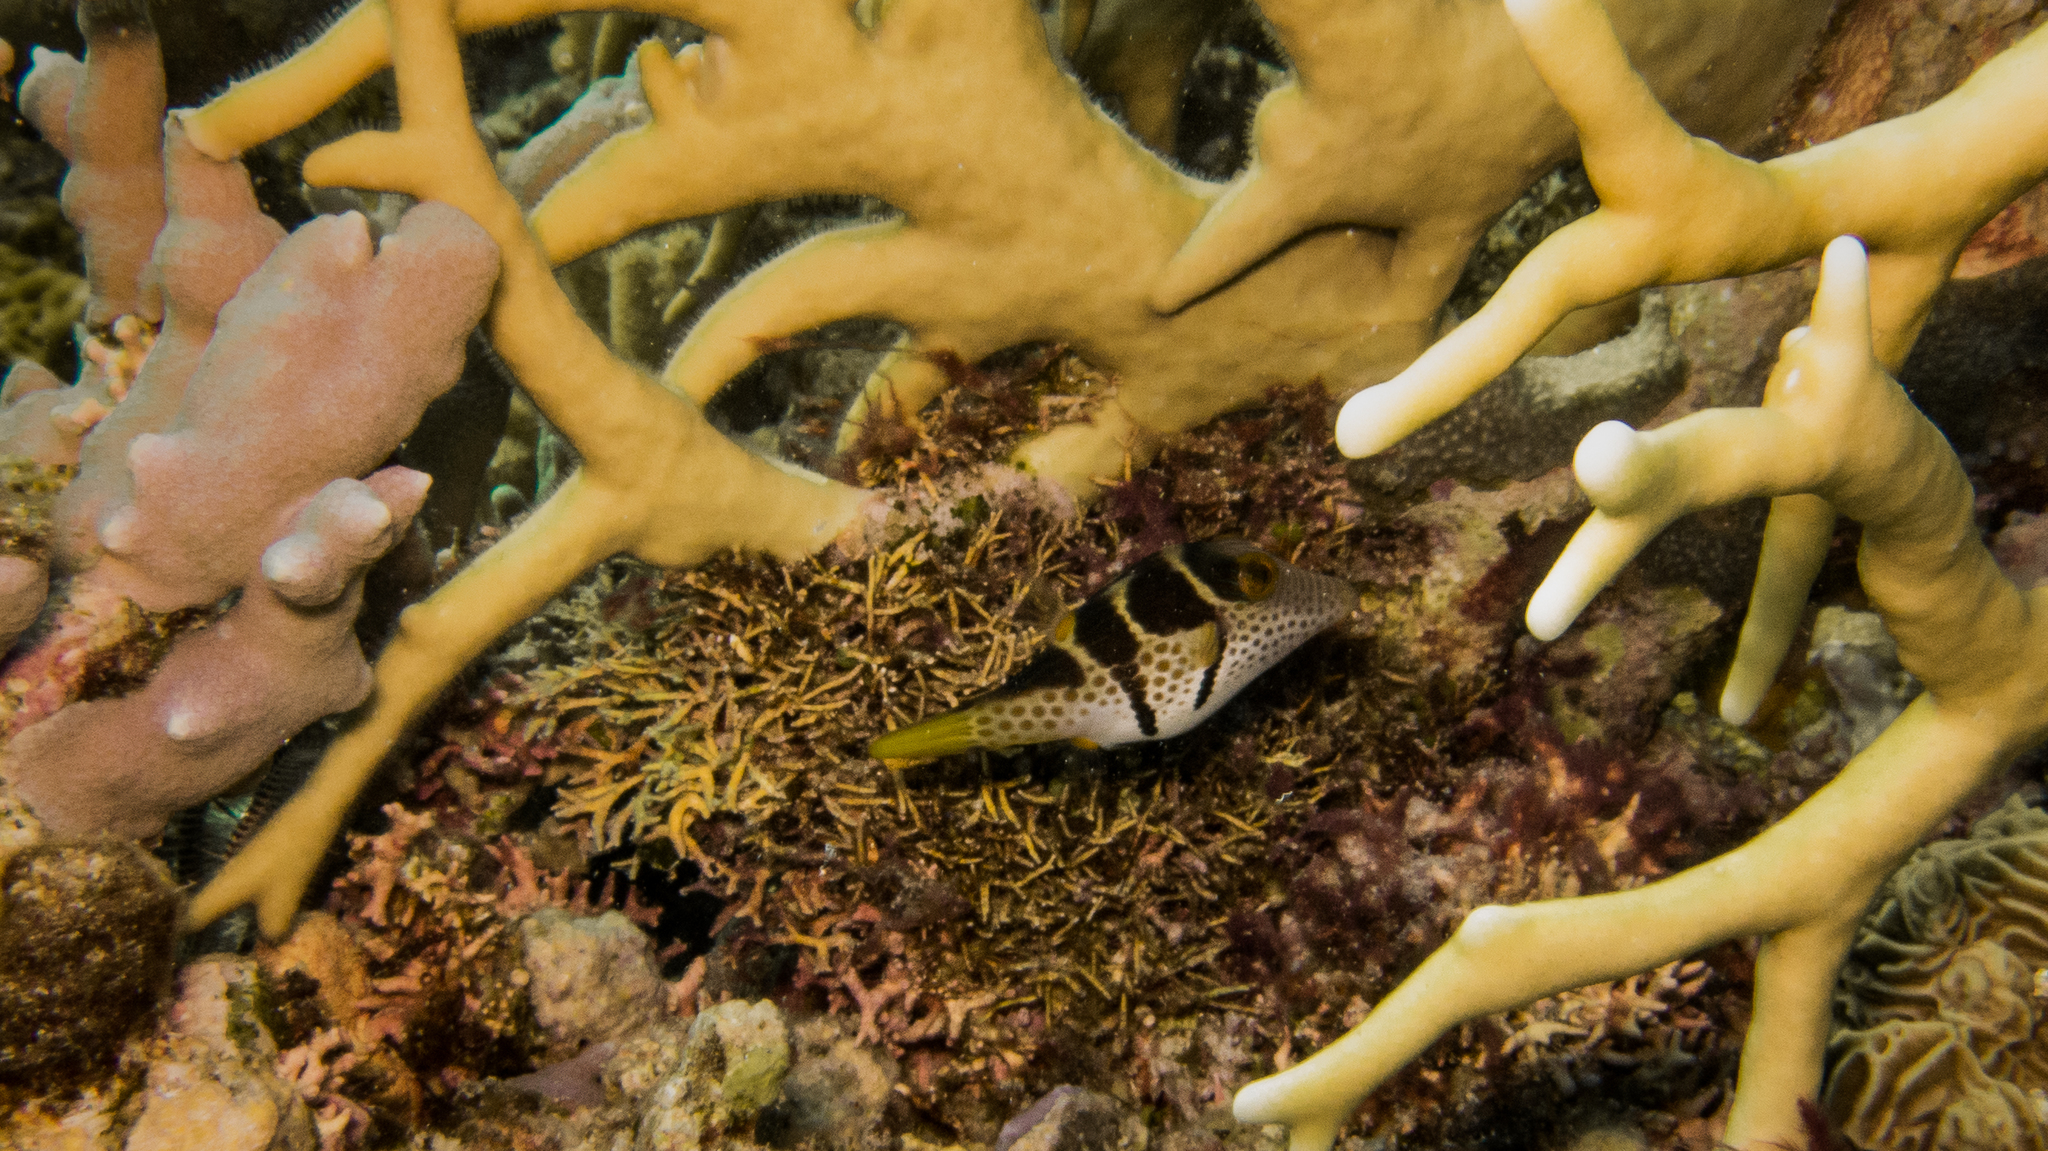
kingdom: Animalia
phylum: Chordata
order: Tetraodontiformes
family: Tetraodontidae
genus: Canthigaster
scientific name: Canthigaster valentini
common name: Banded toby
